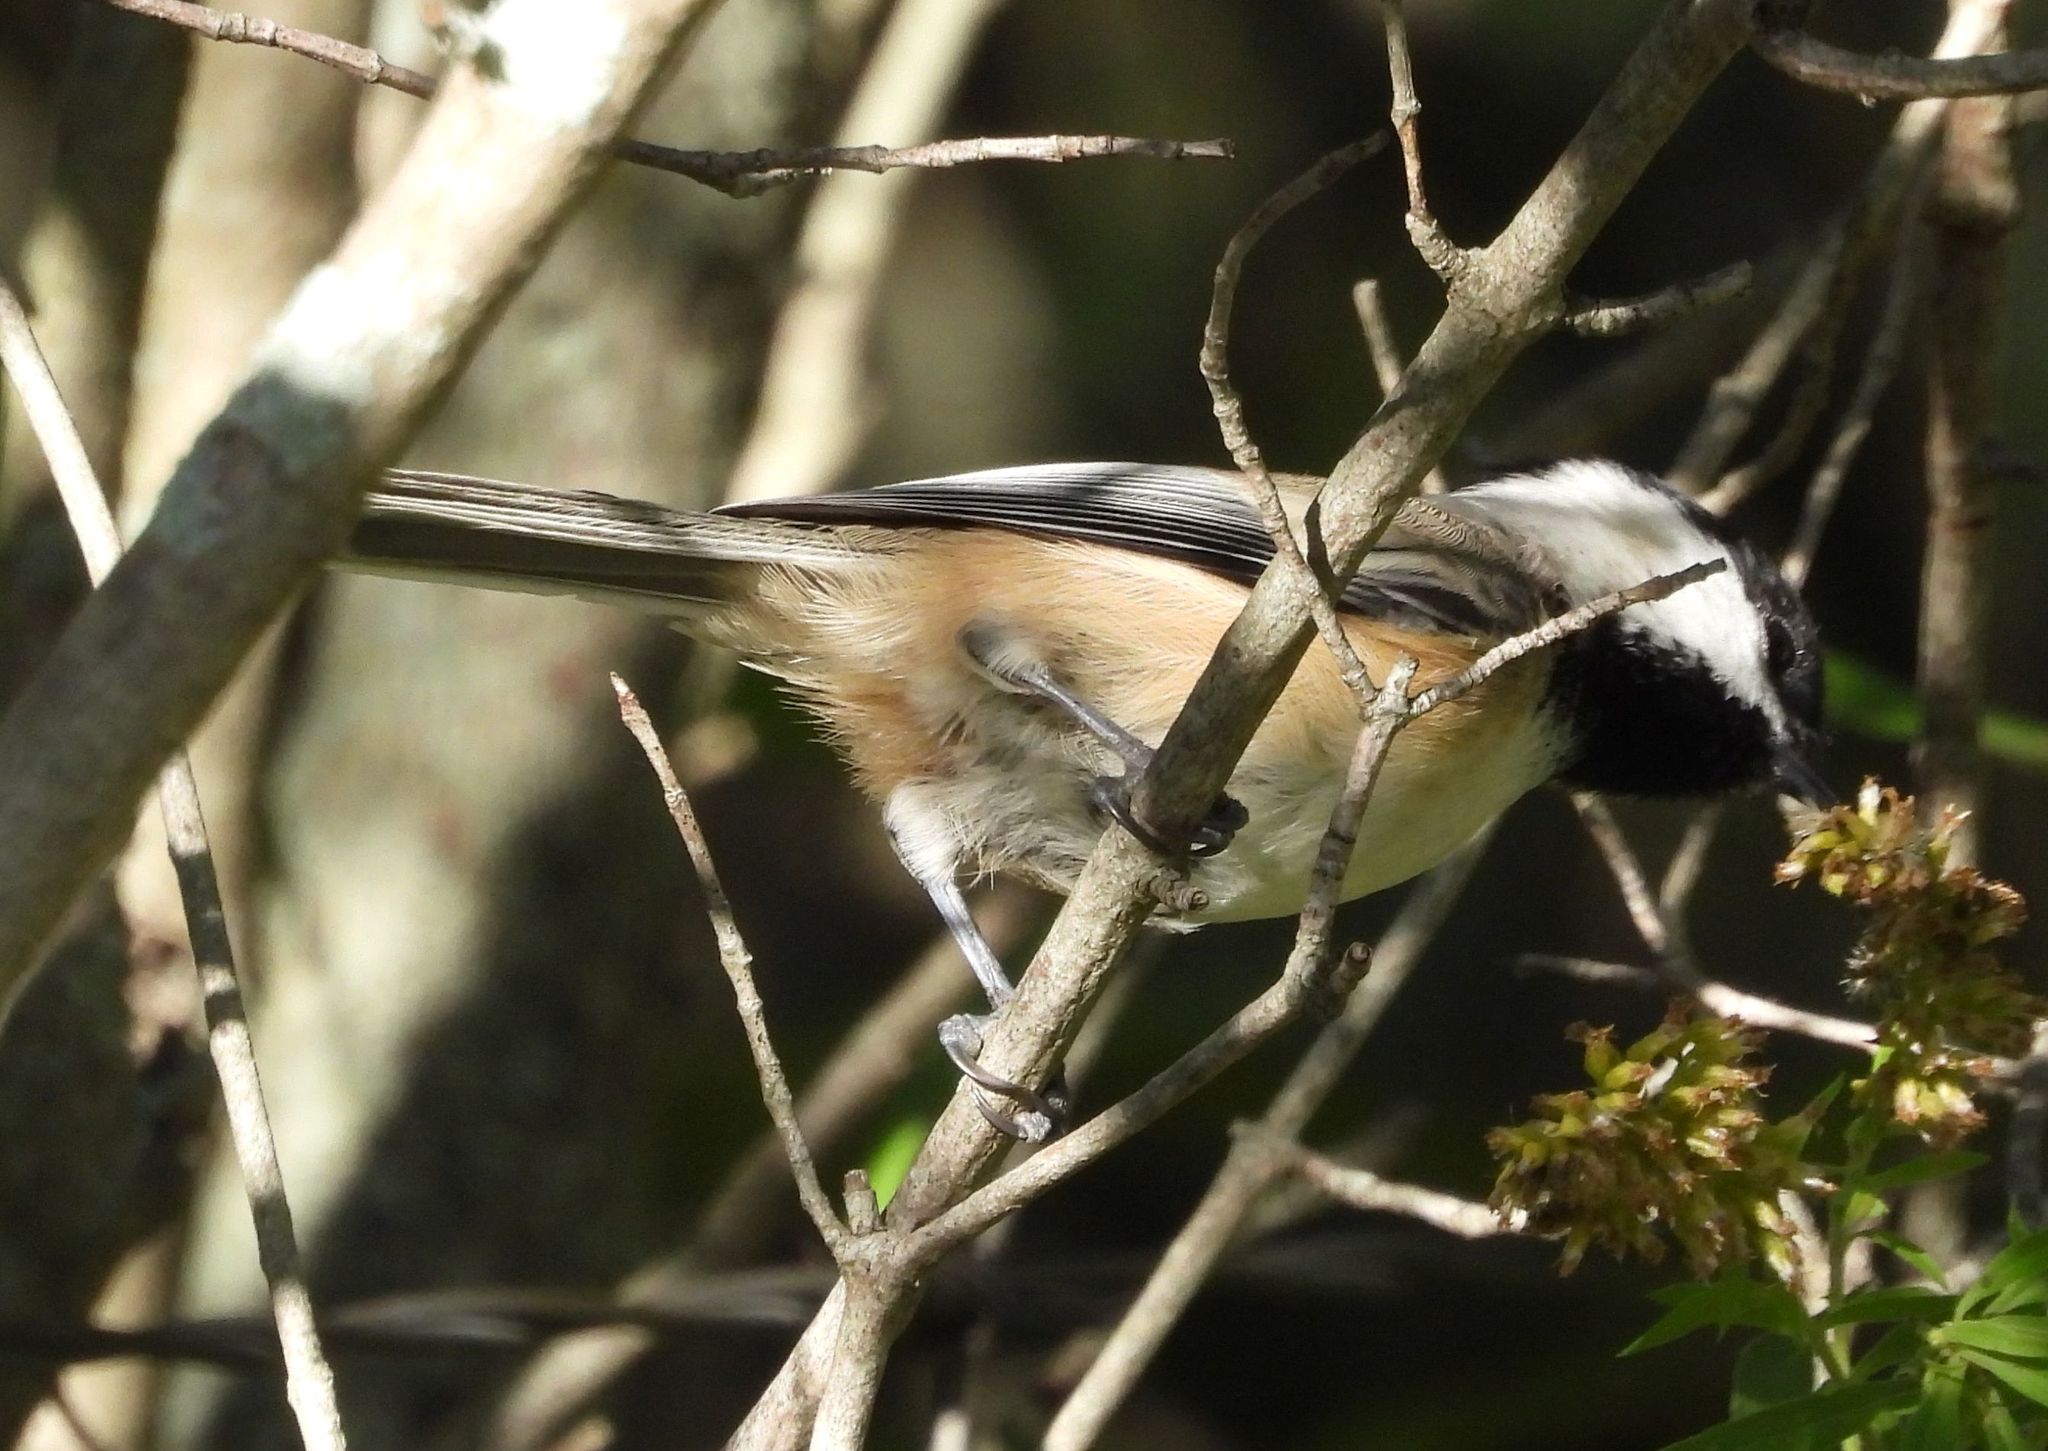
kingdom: Animalia
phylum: Chordata
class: Aves
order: Passeriformes
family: Paridae
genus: Poecile
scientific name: Poecile atricapillus
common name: Black-capped chickadee
